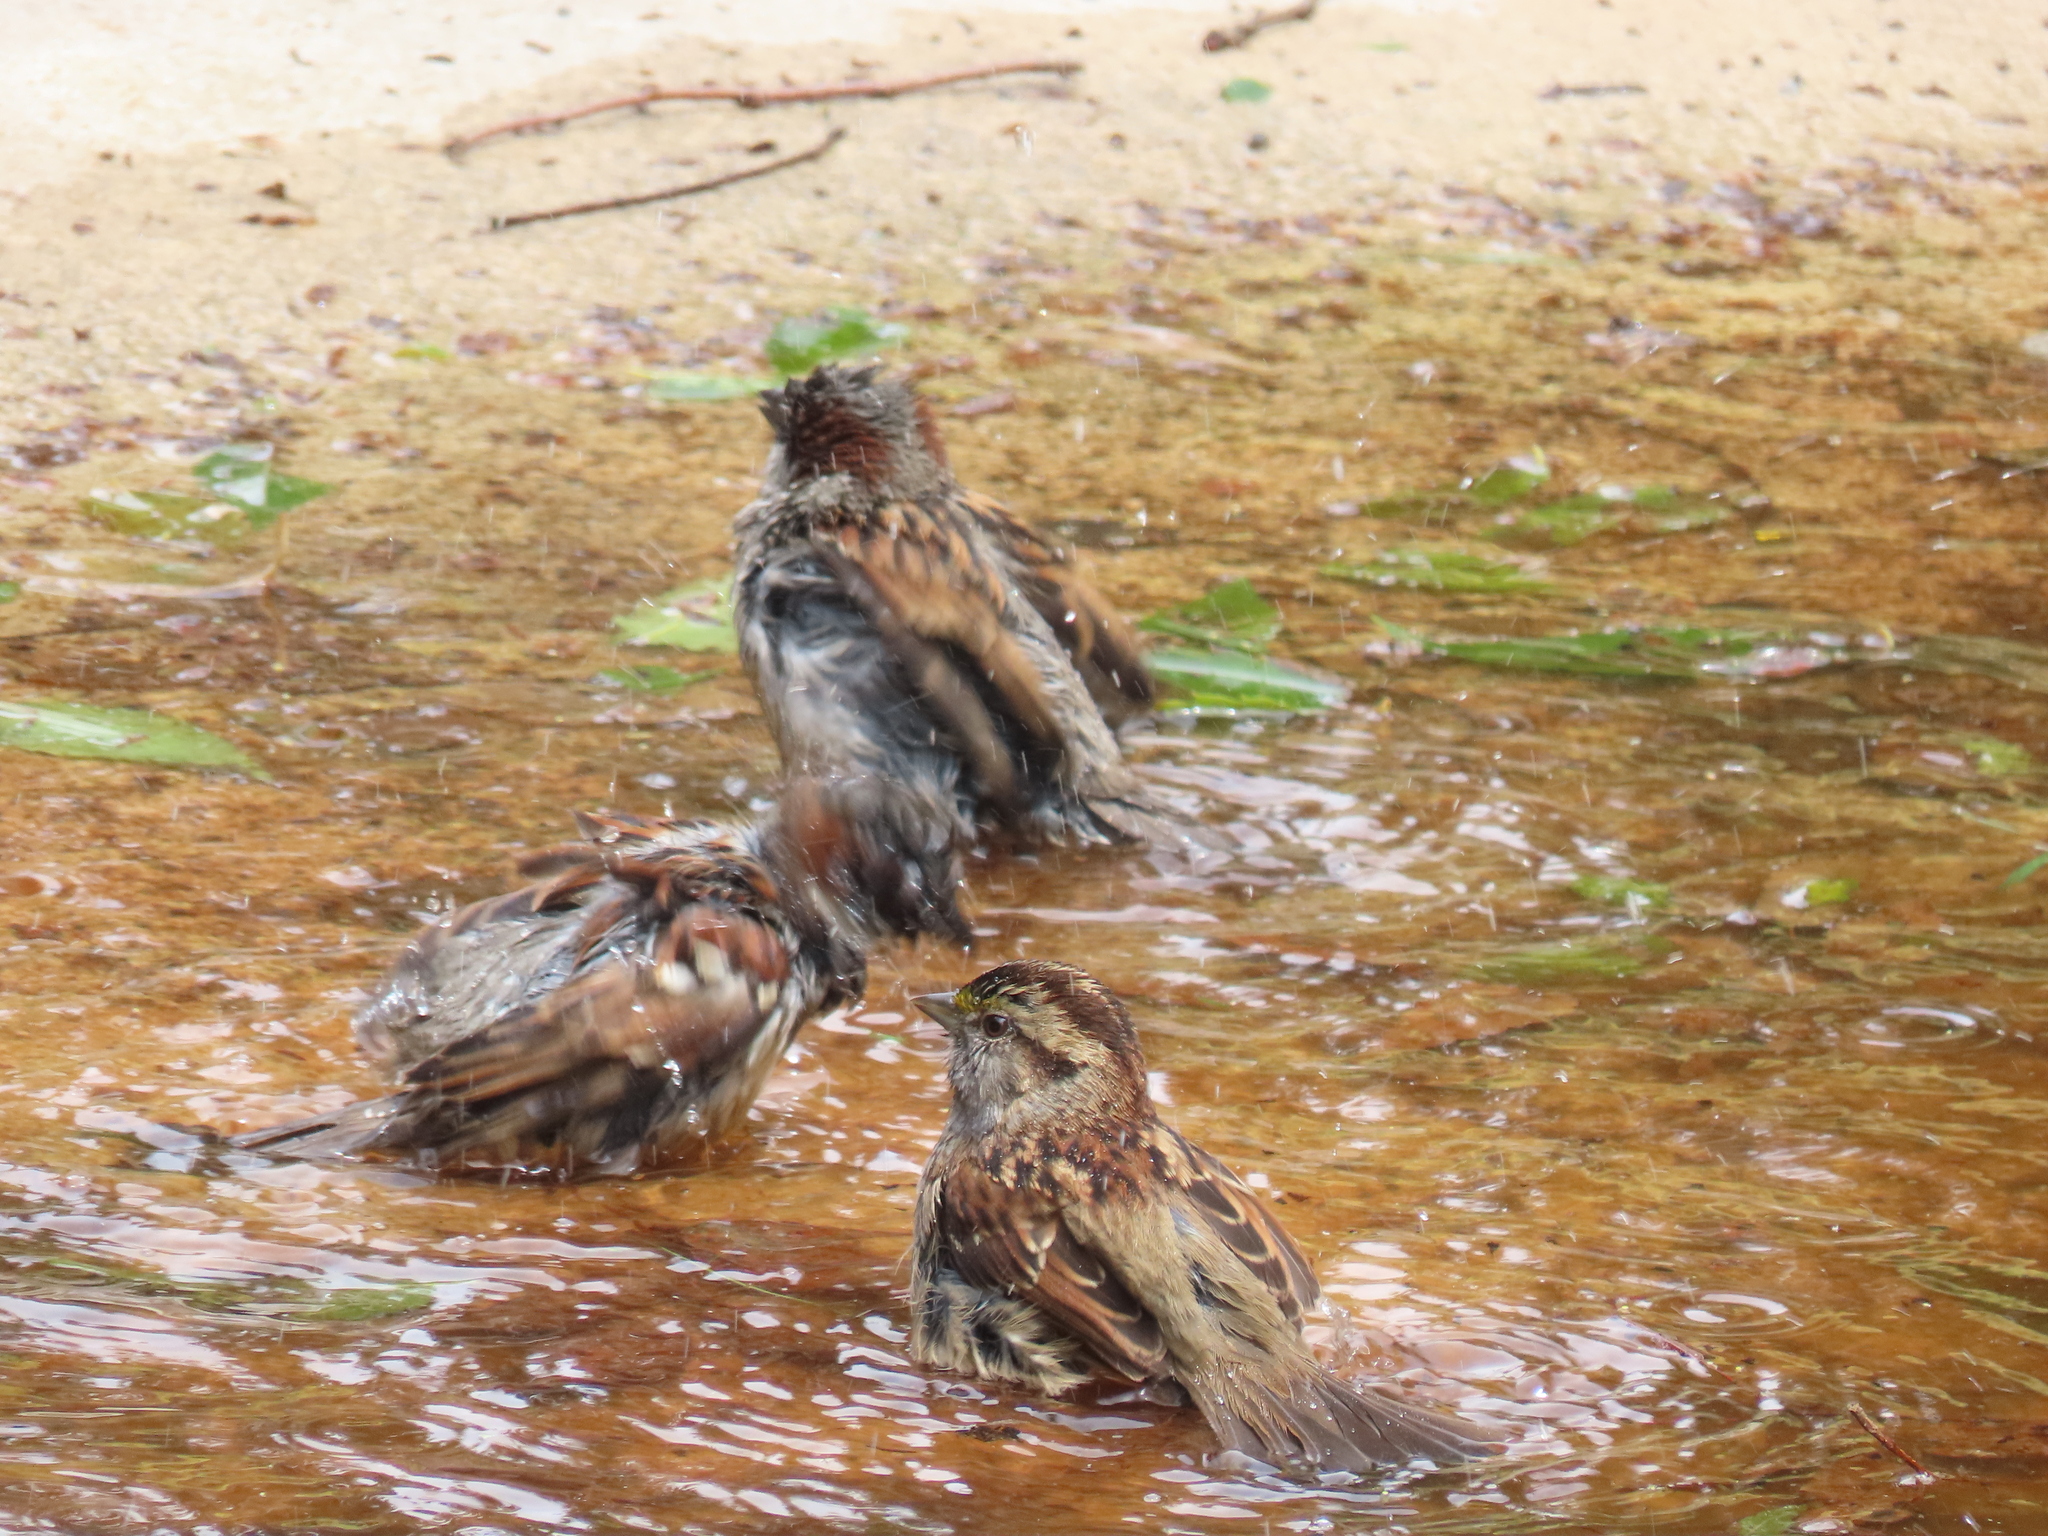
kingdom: Animalia
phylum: Chordata
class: Aves
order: Passeriformes
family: Passerellidae
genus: Zonotrichia
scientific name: Zonotrichia albicollis
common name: White-throated sparrow
